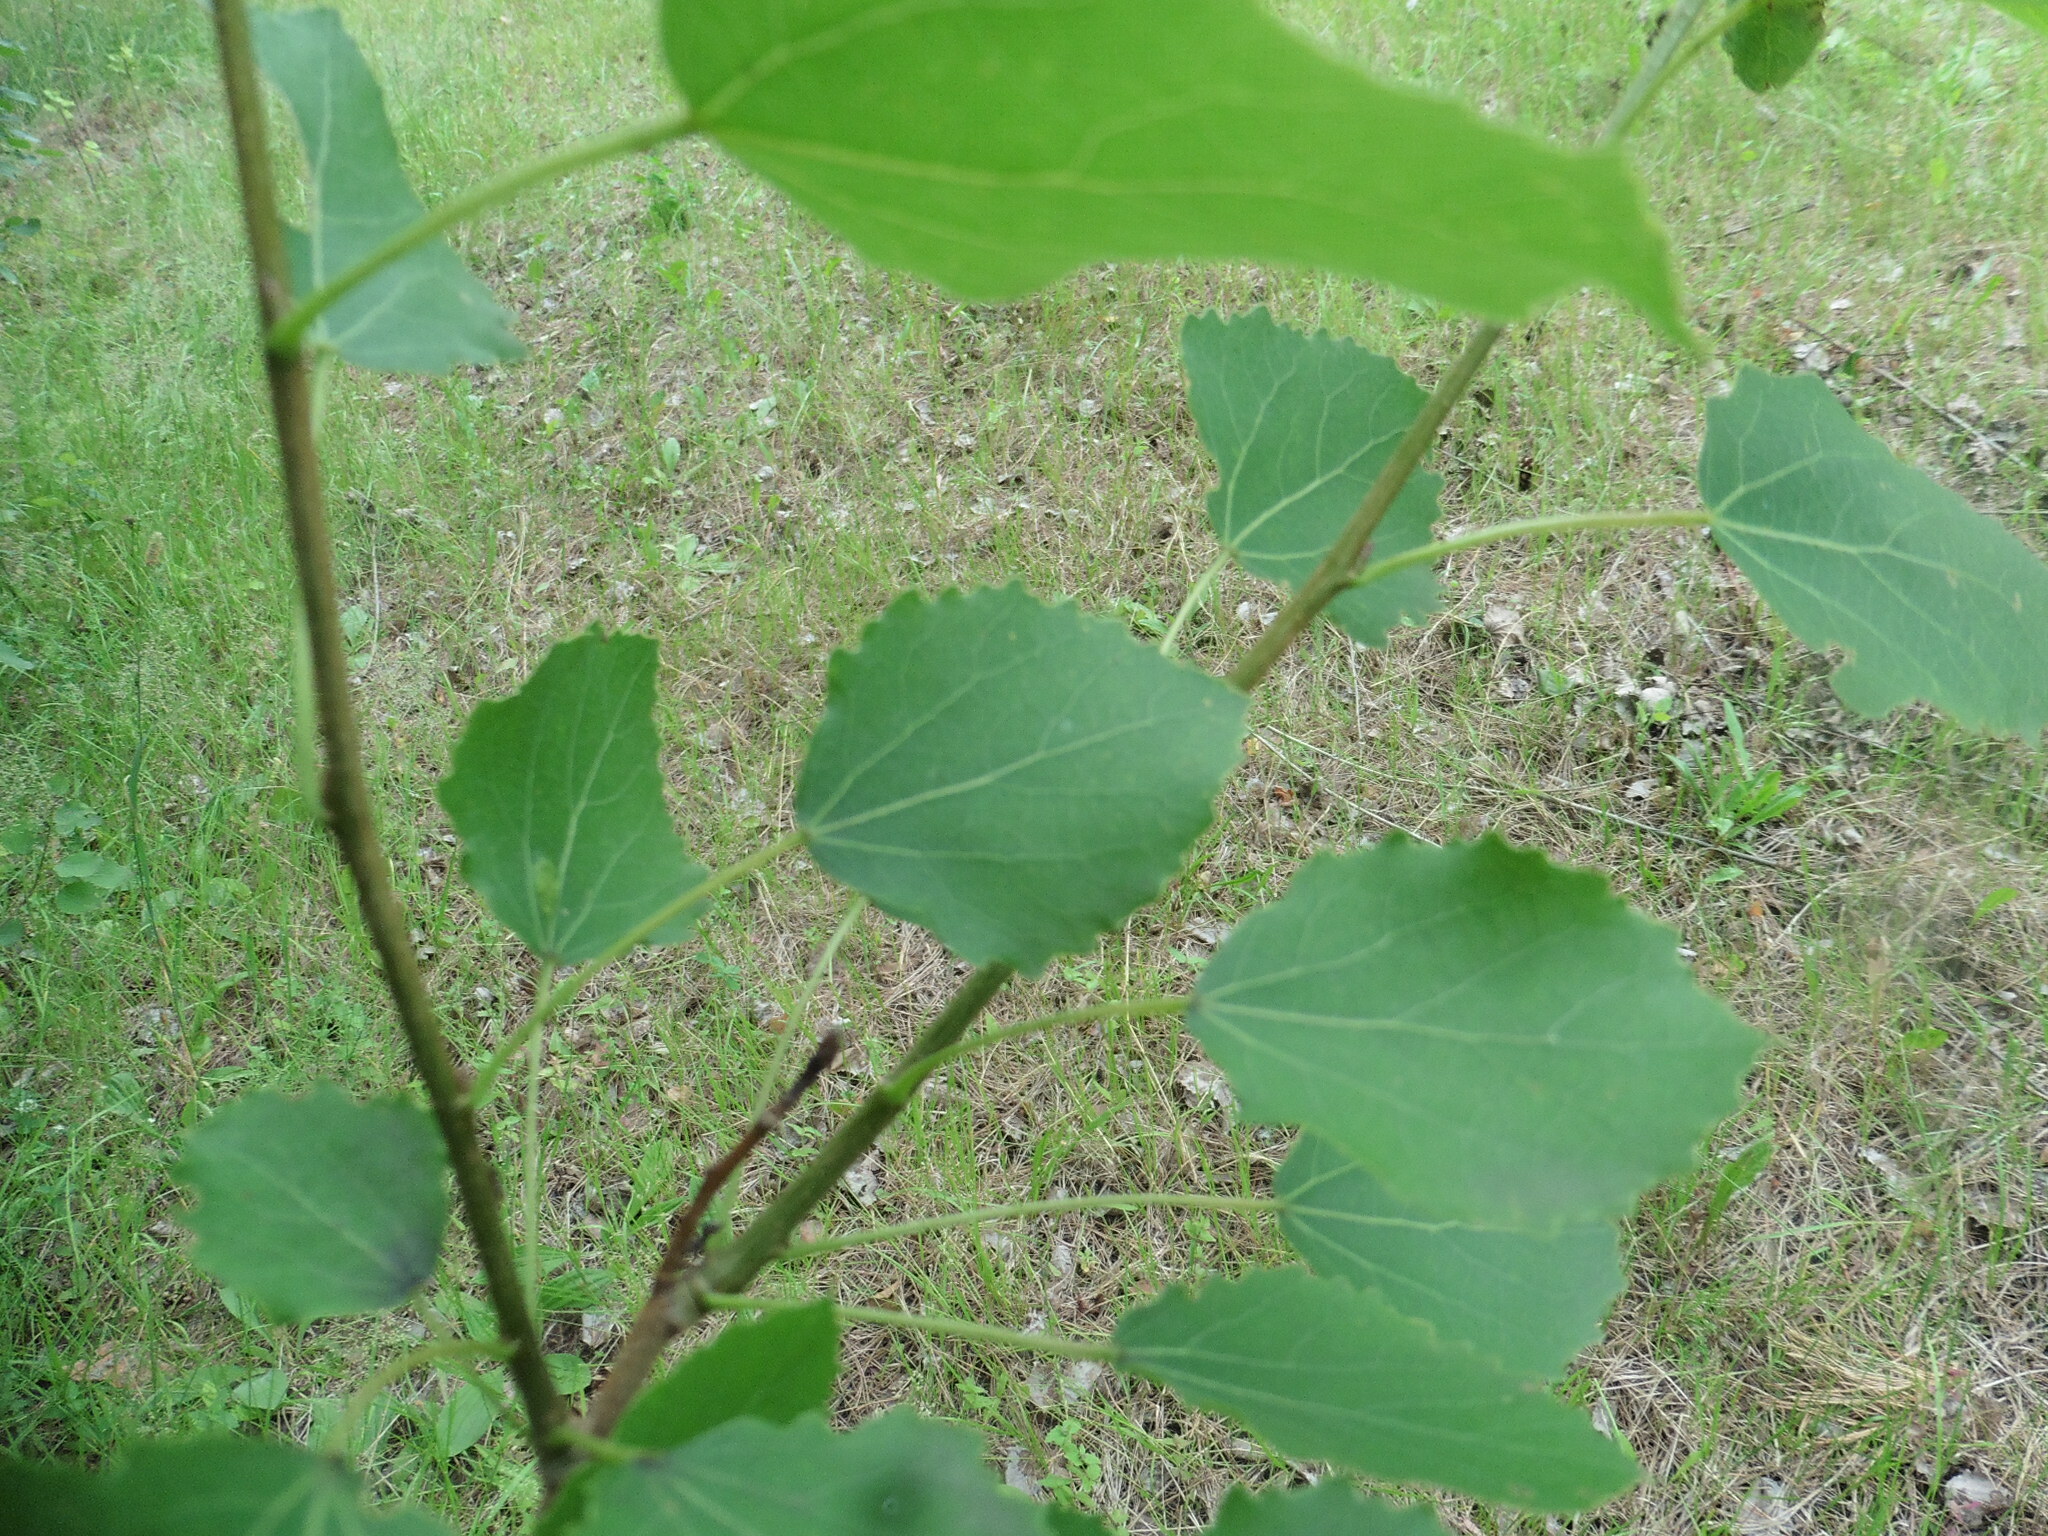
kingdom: Plantae
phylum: Tracheophyta
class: Magnoliopsida
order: Malpighiales
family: Salicaceae
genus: Populus
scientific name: Populus tremula
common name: European aspen
